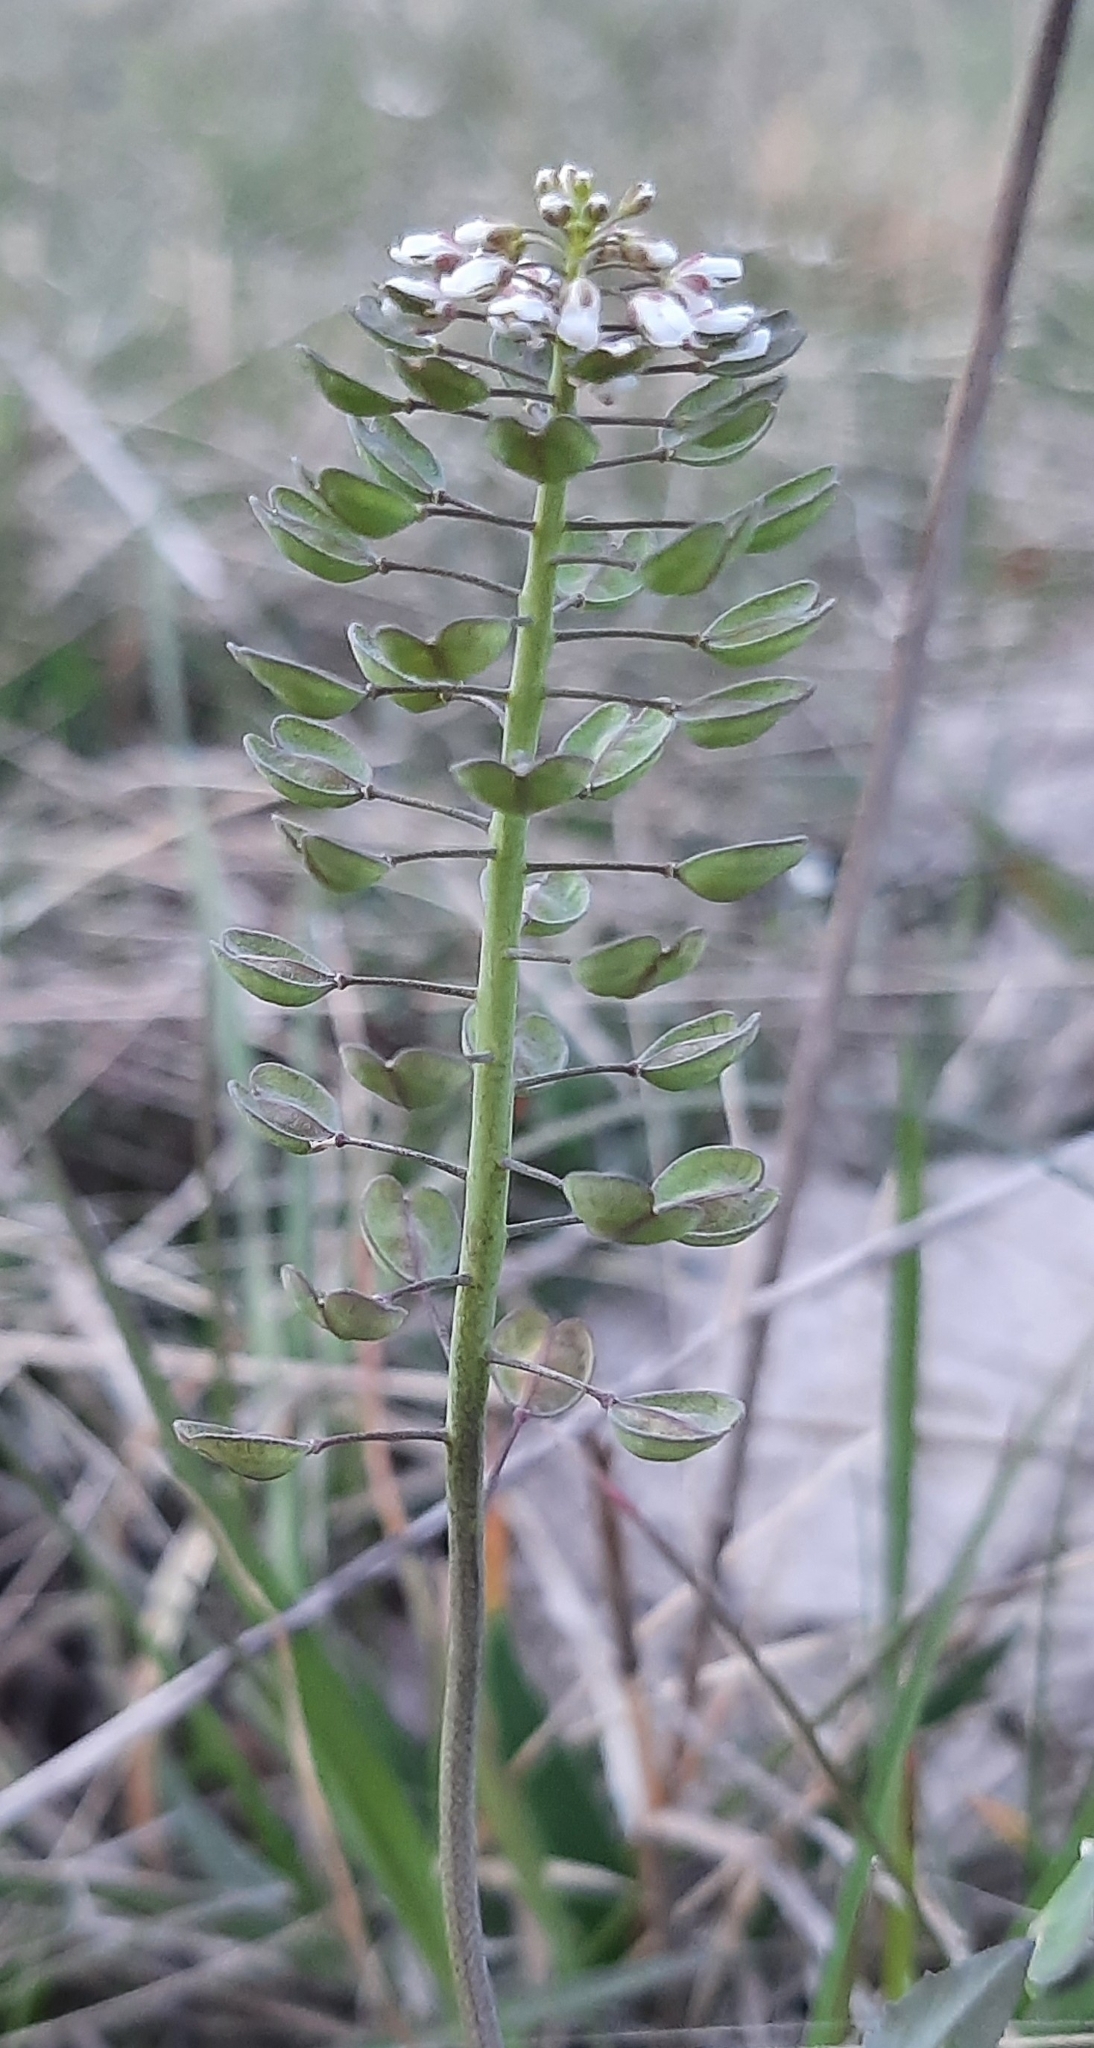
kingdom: Plantae
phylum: Tracheophyta
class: Magnoliopsida
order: Brassicales
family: Brassicaceae
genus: Noccaea
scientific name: Noccaea perfoliata
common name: Perfoliate pennycress
